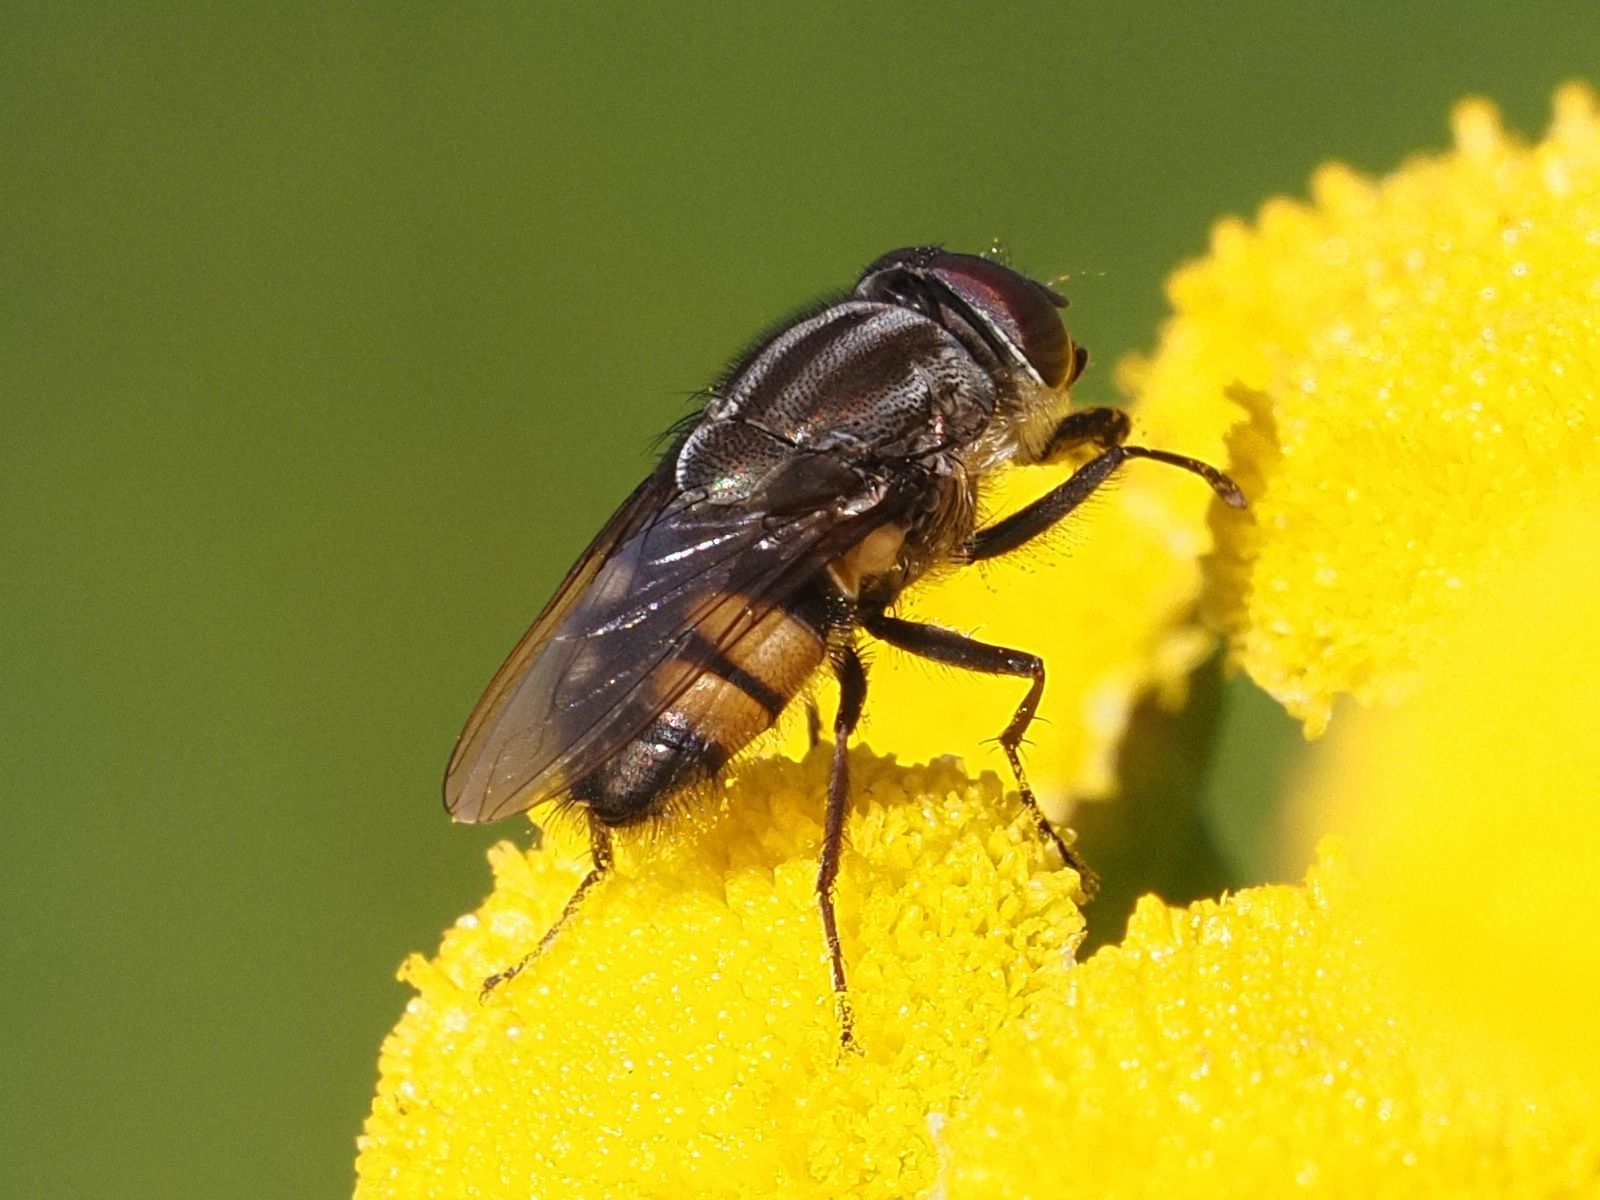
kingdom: Animalia
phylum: Arthropoda
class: Insecta
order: Diptera
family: Calliphoridae
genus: Stomorhina
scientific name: Stomorhina lunata
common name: Locust blowfly
